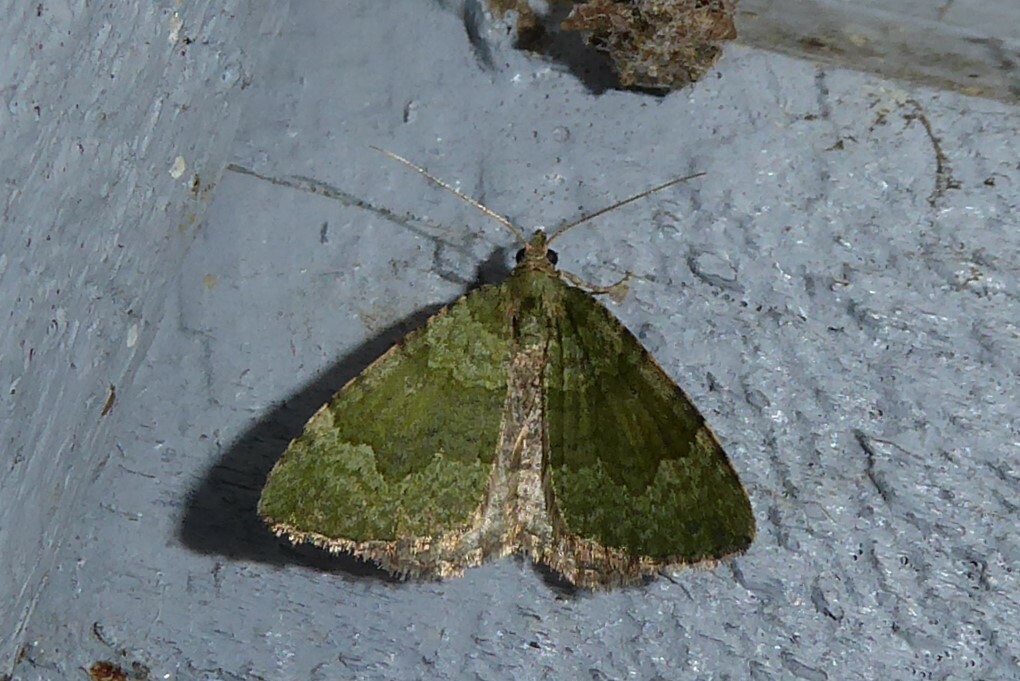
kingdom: Animalia
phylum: Arthropoda
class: Insecta
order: Lepidoptera
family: Geometridae
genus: Epyaxa
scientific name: Epyaxa rosearia
